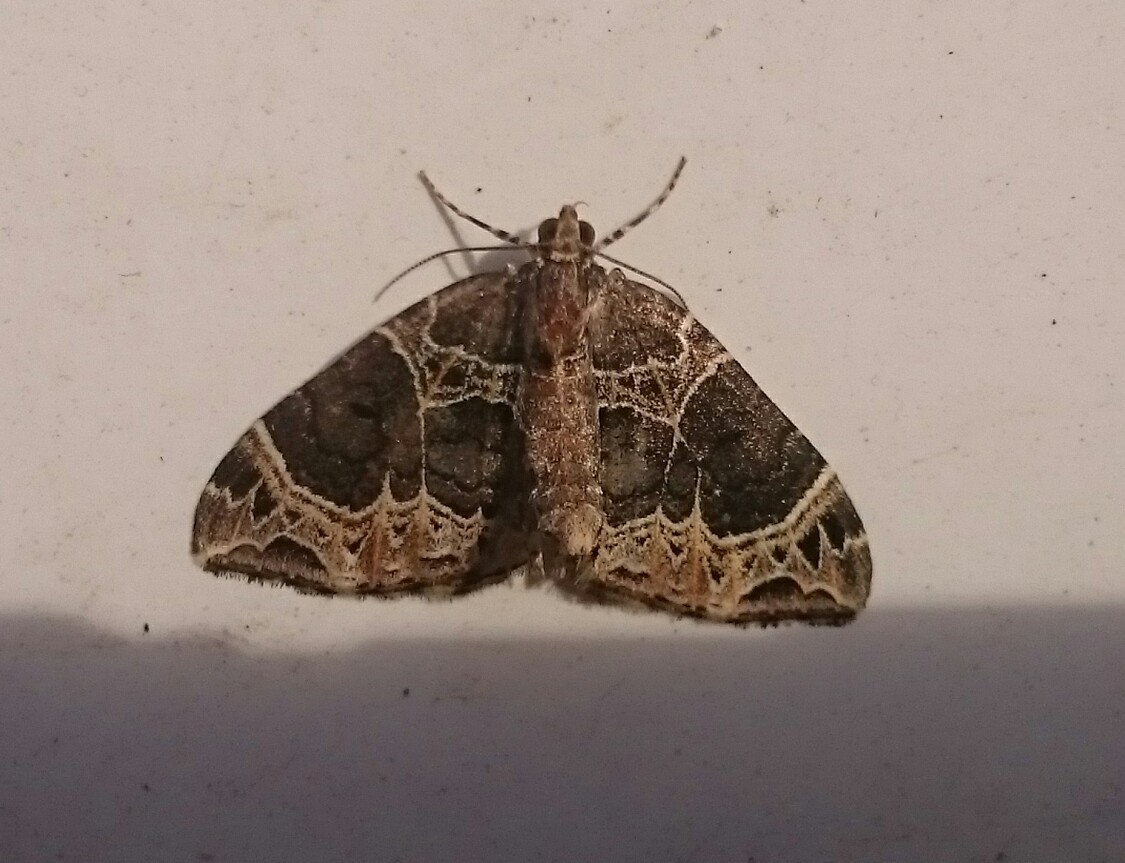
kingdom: Animalia
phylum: Arthropoda
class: Insecta
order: Lepidoptera
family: Geometridae
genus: Ecliptopera
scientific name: Ecliptopera silaceata
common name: Small phoenix
